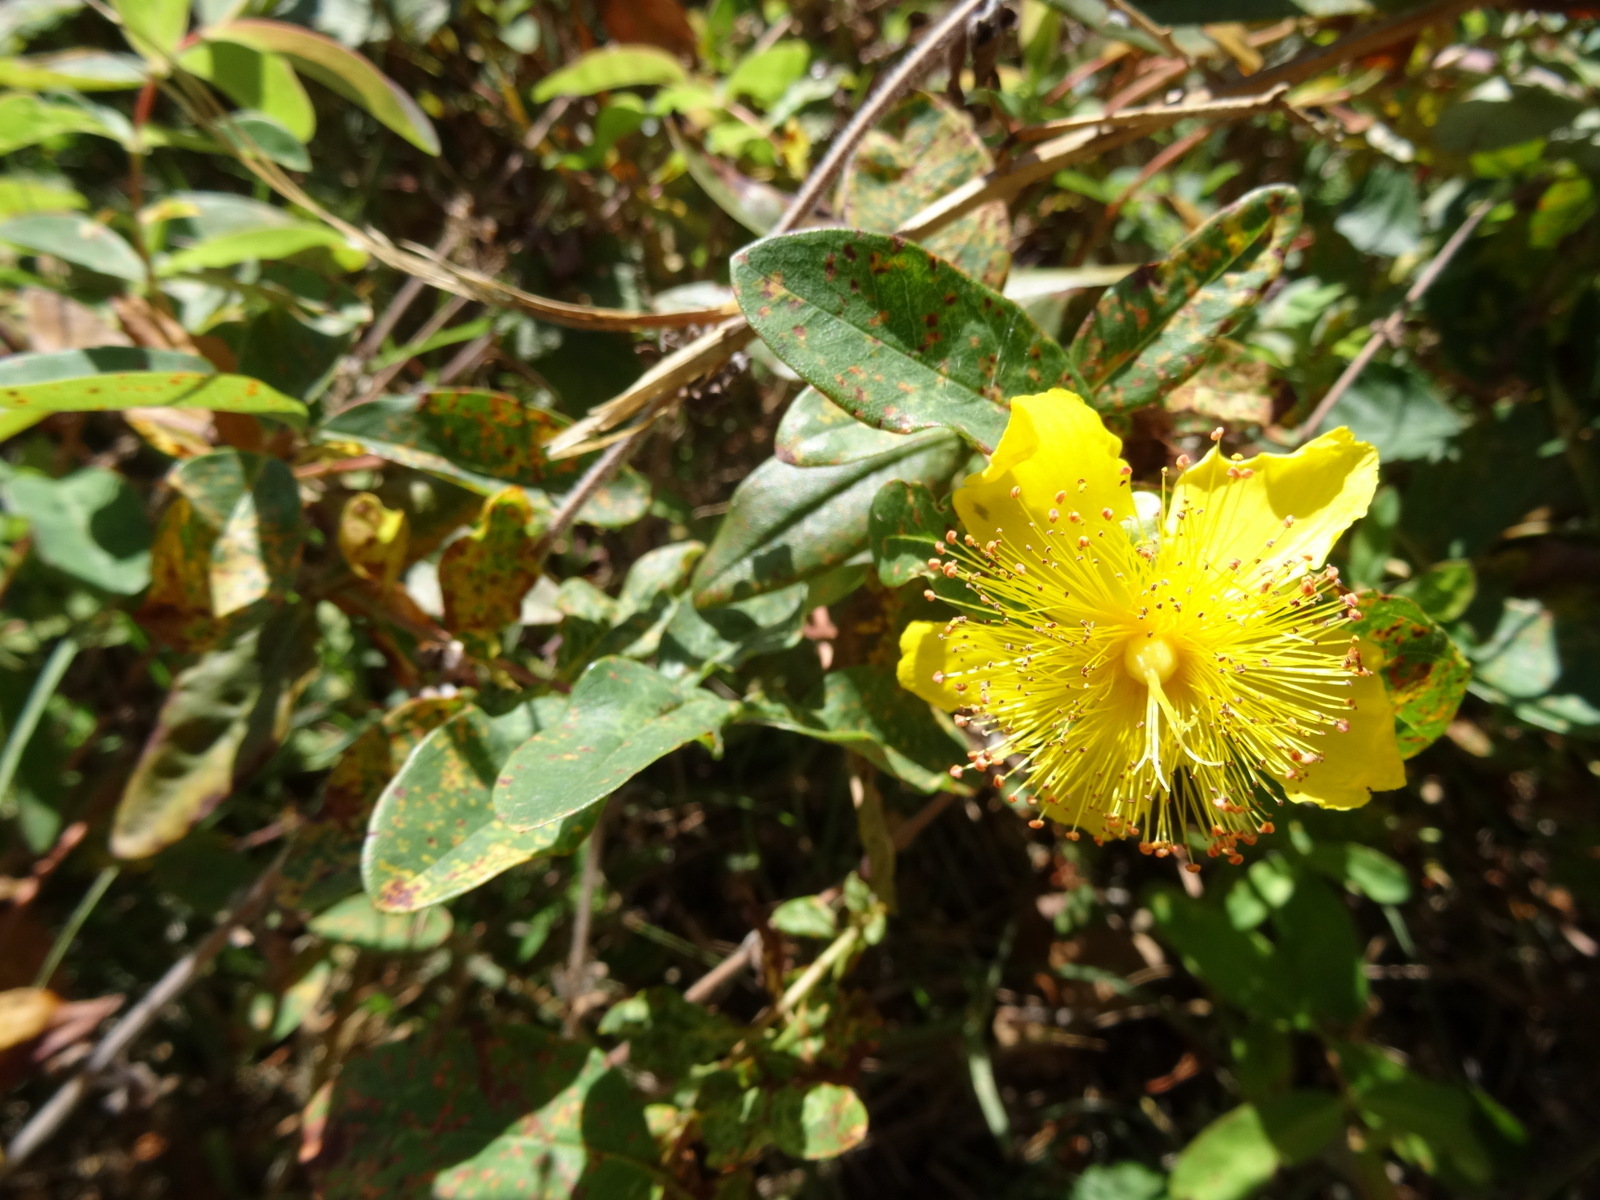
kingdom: Plantae
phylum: Tracheophyta
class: Magnoliopsida
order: Malpighiales
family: Hypericaceae
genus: Hypericum
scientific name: Hypericum calycinum
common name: Rose-of-sharon
